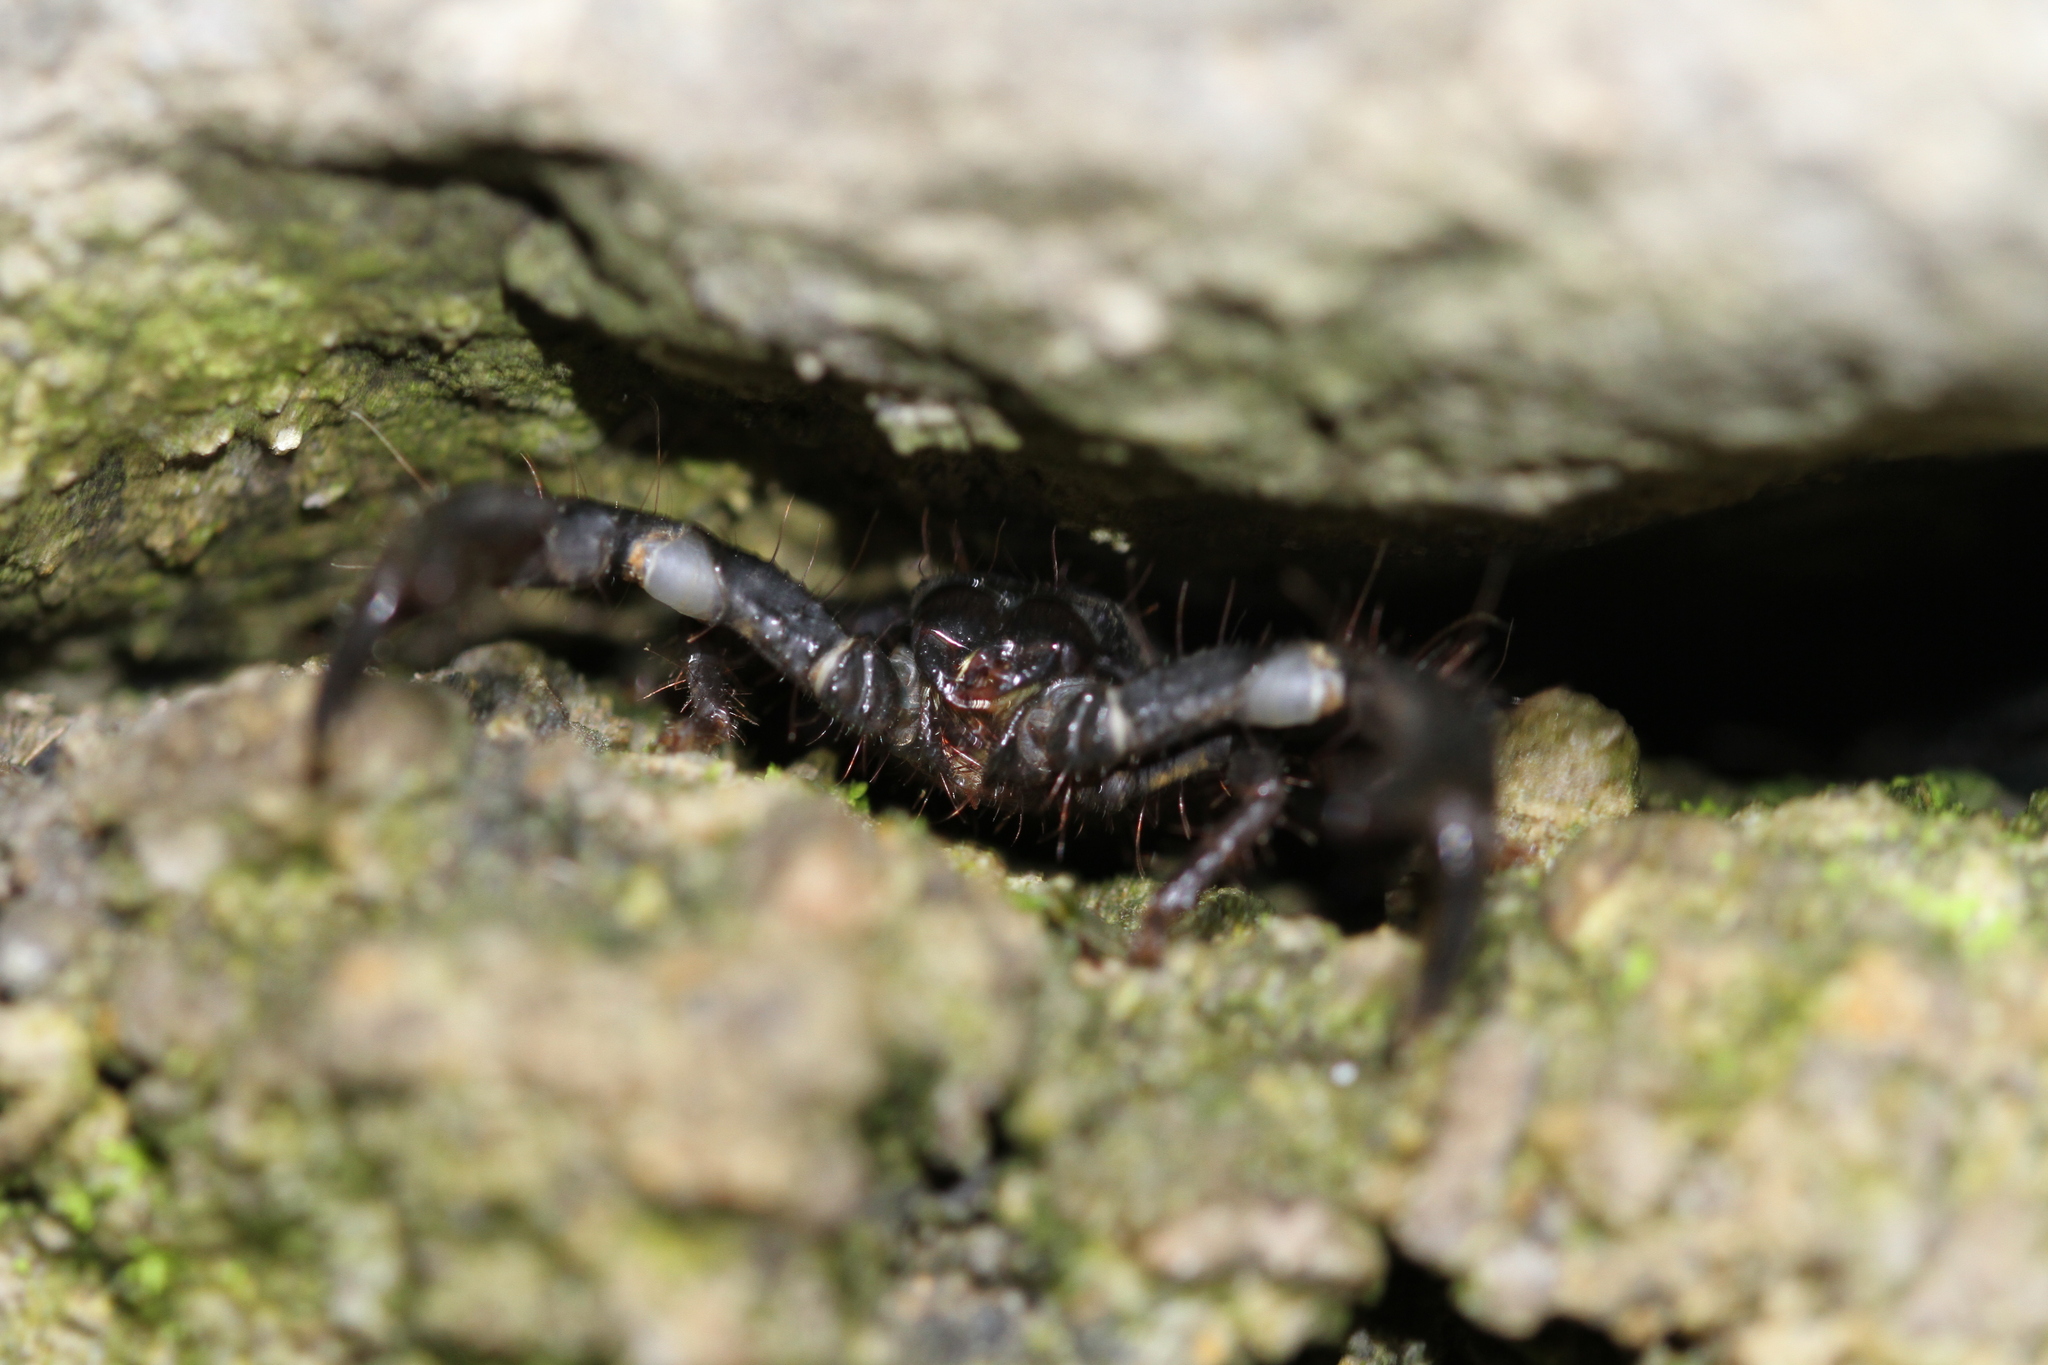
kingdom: Animalia
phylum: Arthropoda
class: Arachnida
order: Scorpiones
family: Scorpionidae
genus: Javanimetrus
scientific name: Javanimetrus cyaneus
